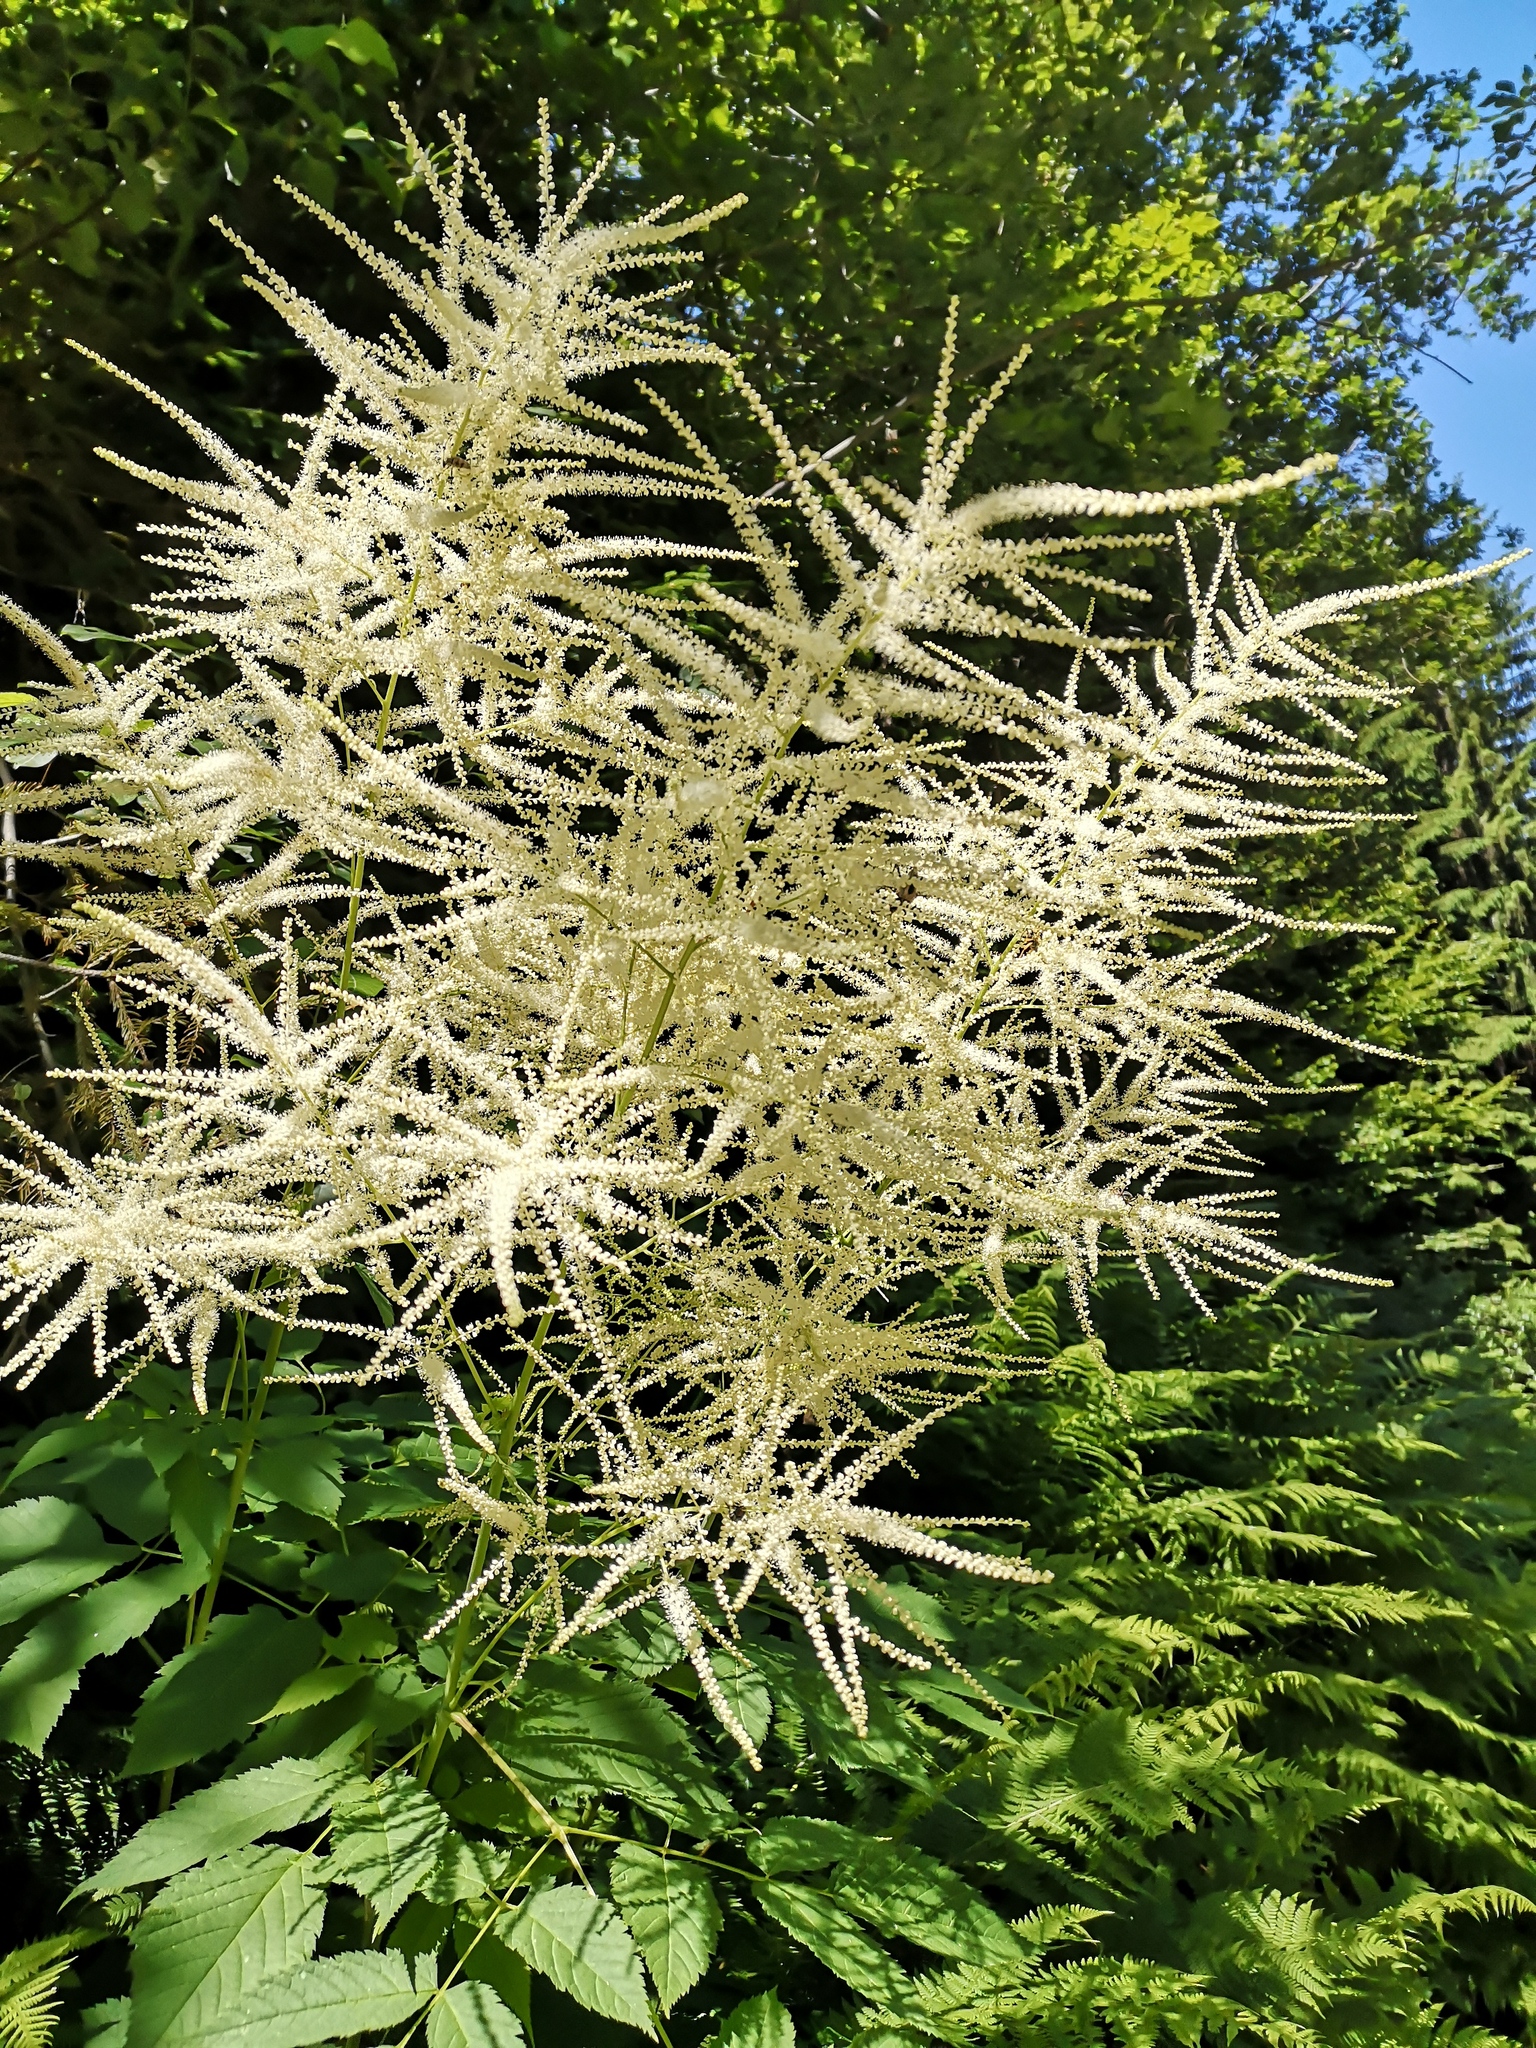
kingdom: Plantae
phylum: Tracheophyta
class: Magnoliopsida
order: Rosales
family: Rosaceae
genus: Aruncus
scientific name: Aruncus dioicus
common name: Buck's-beard
